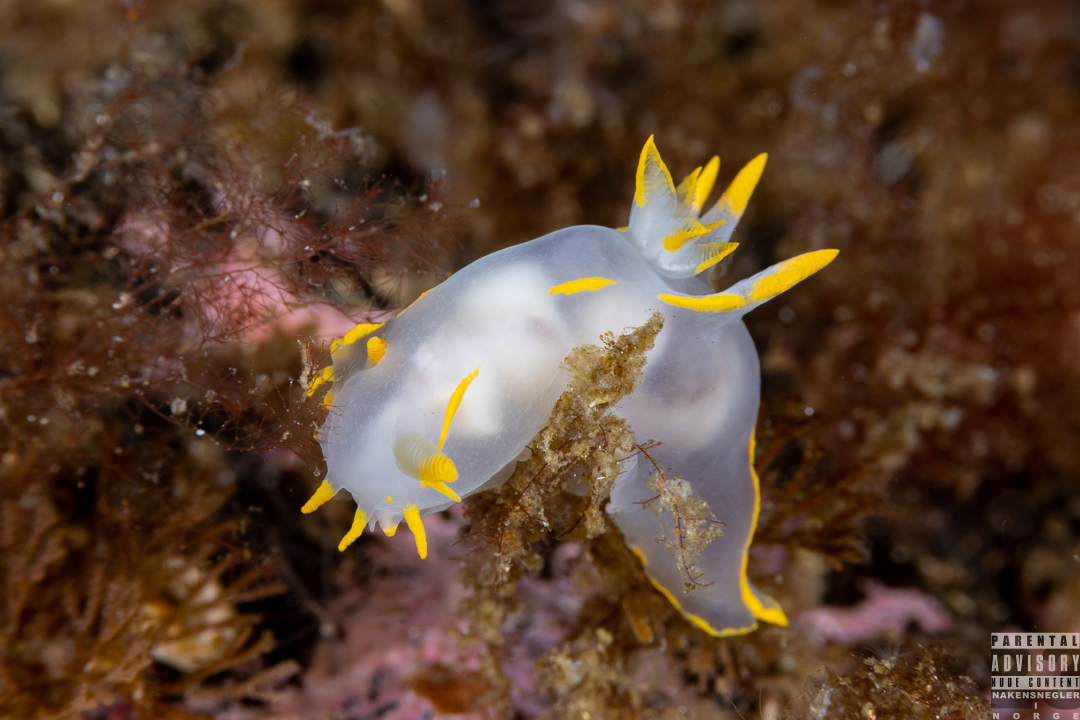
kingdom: Animalia
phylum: Mollusca
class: Gastropoda
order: Nudibranchia
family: Polyceridae
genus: Polycera
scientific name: Polycera faeroensis
